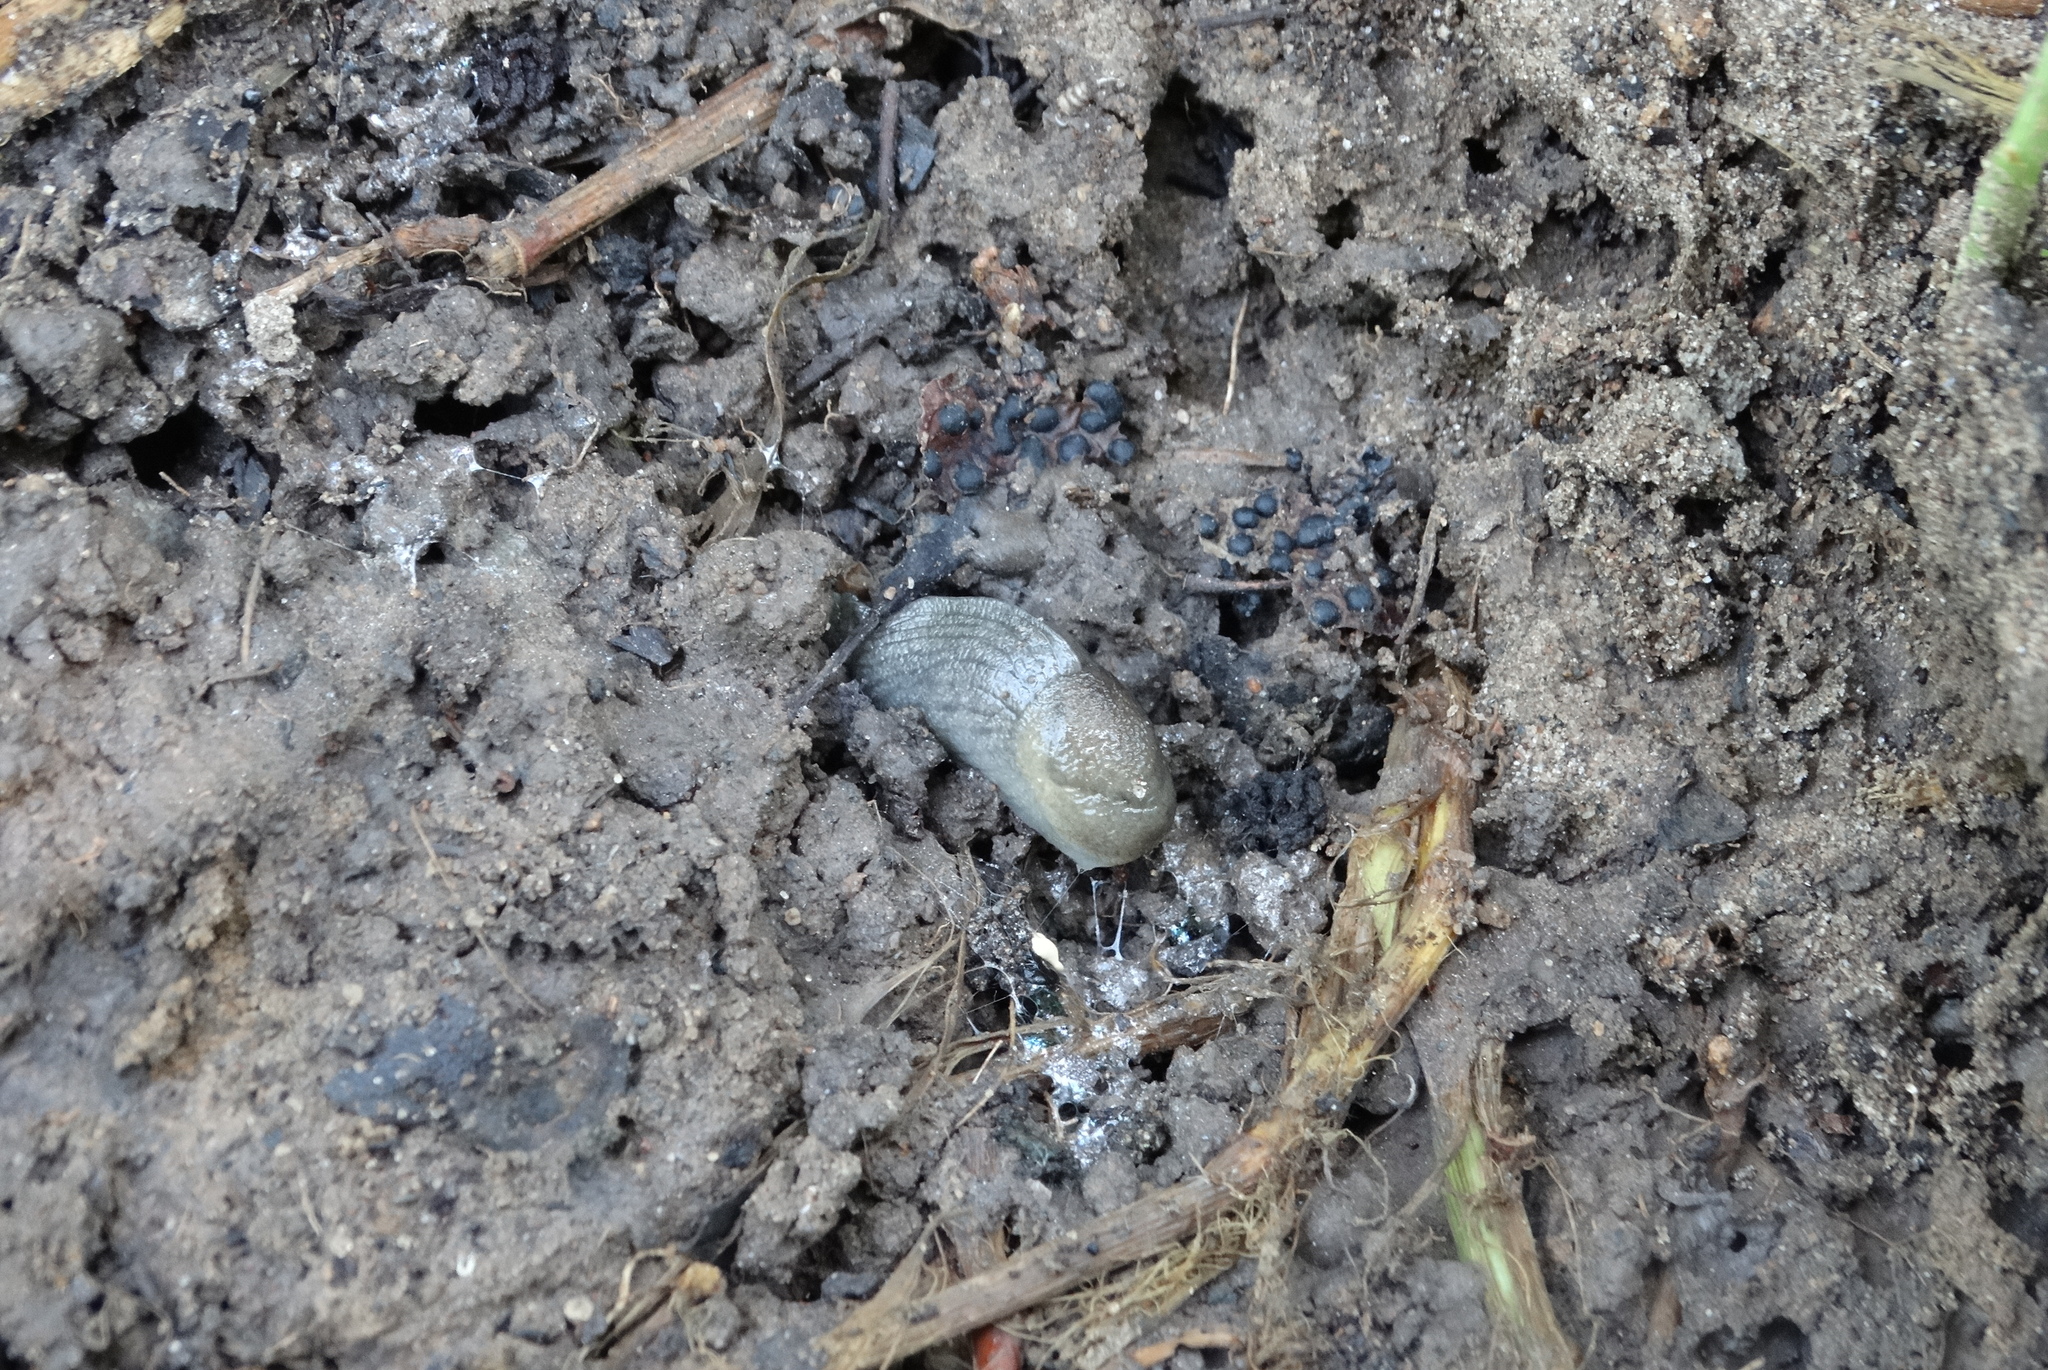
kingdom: Animalia
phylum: Mollusca
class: Gastropoda
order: Stylommatophora
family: Milacidae
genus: Milax
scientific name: Milax gagates
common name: Greenhouse slug
